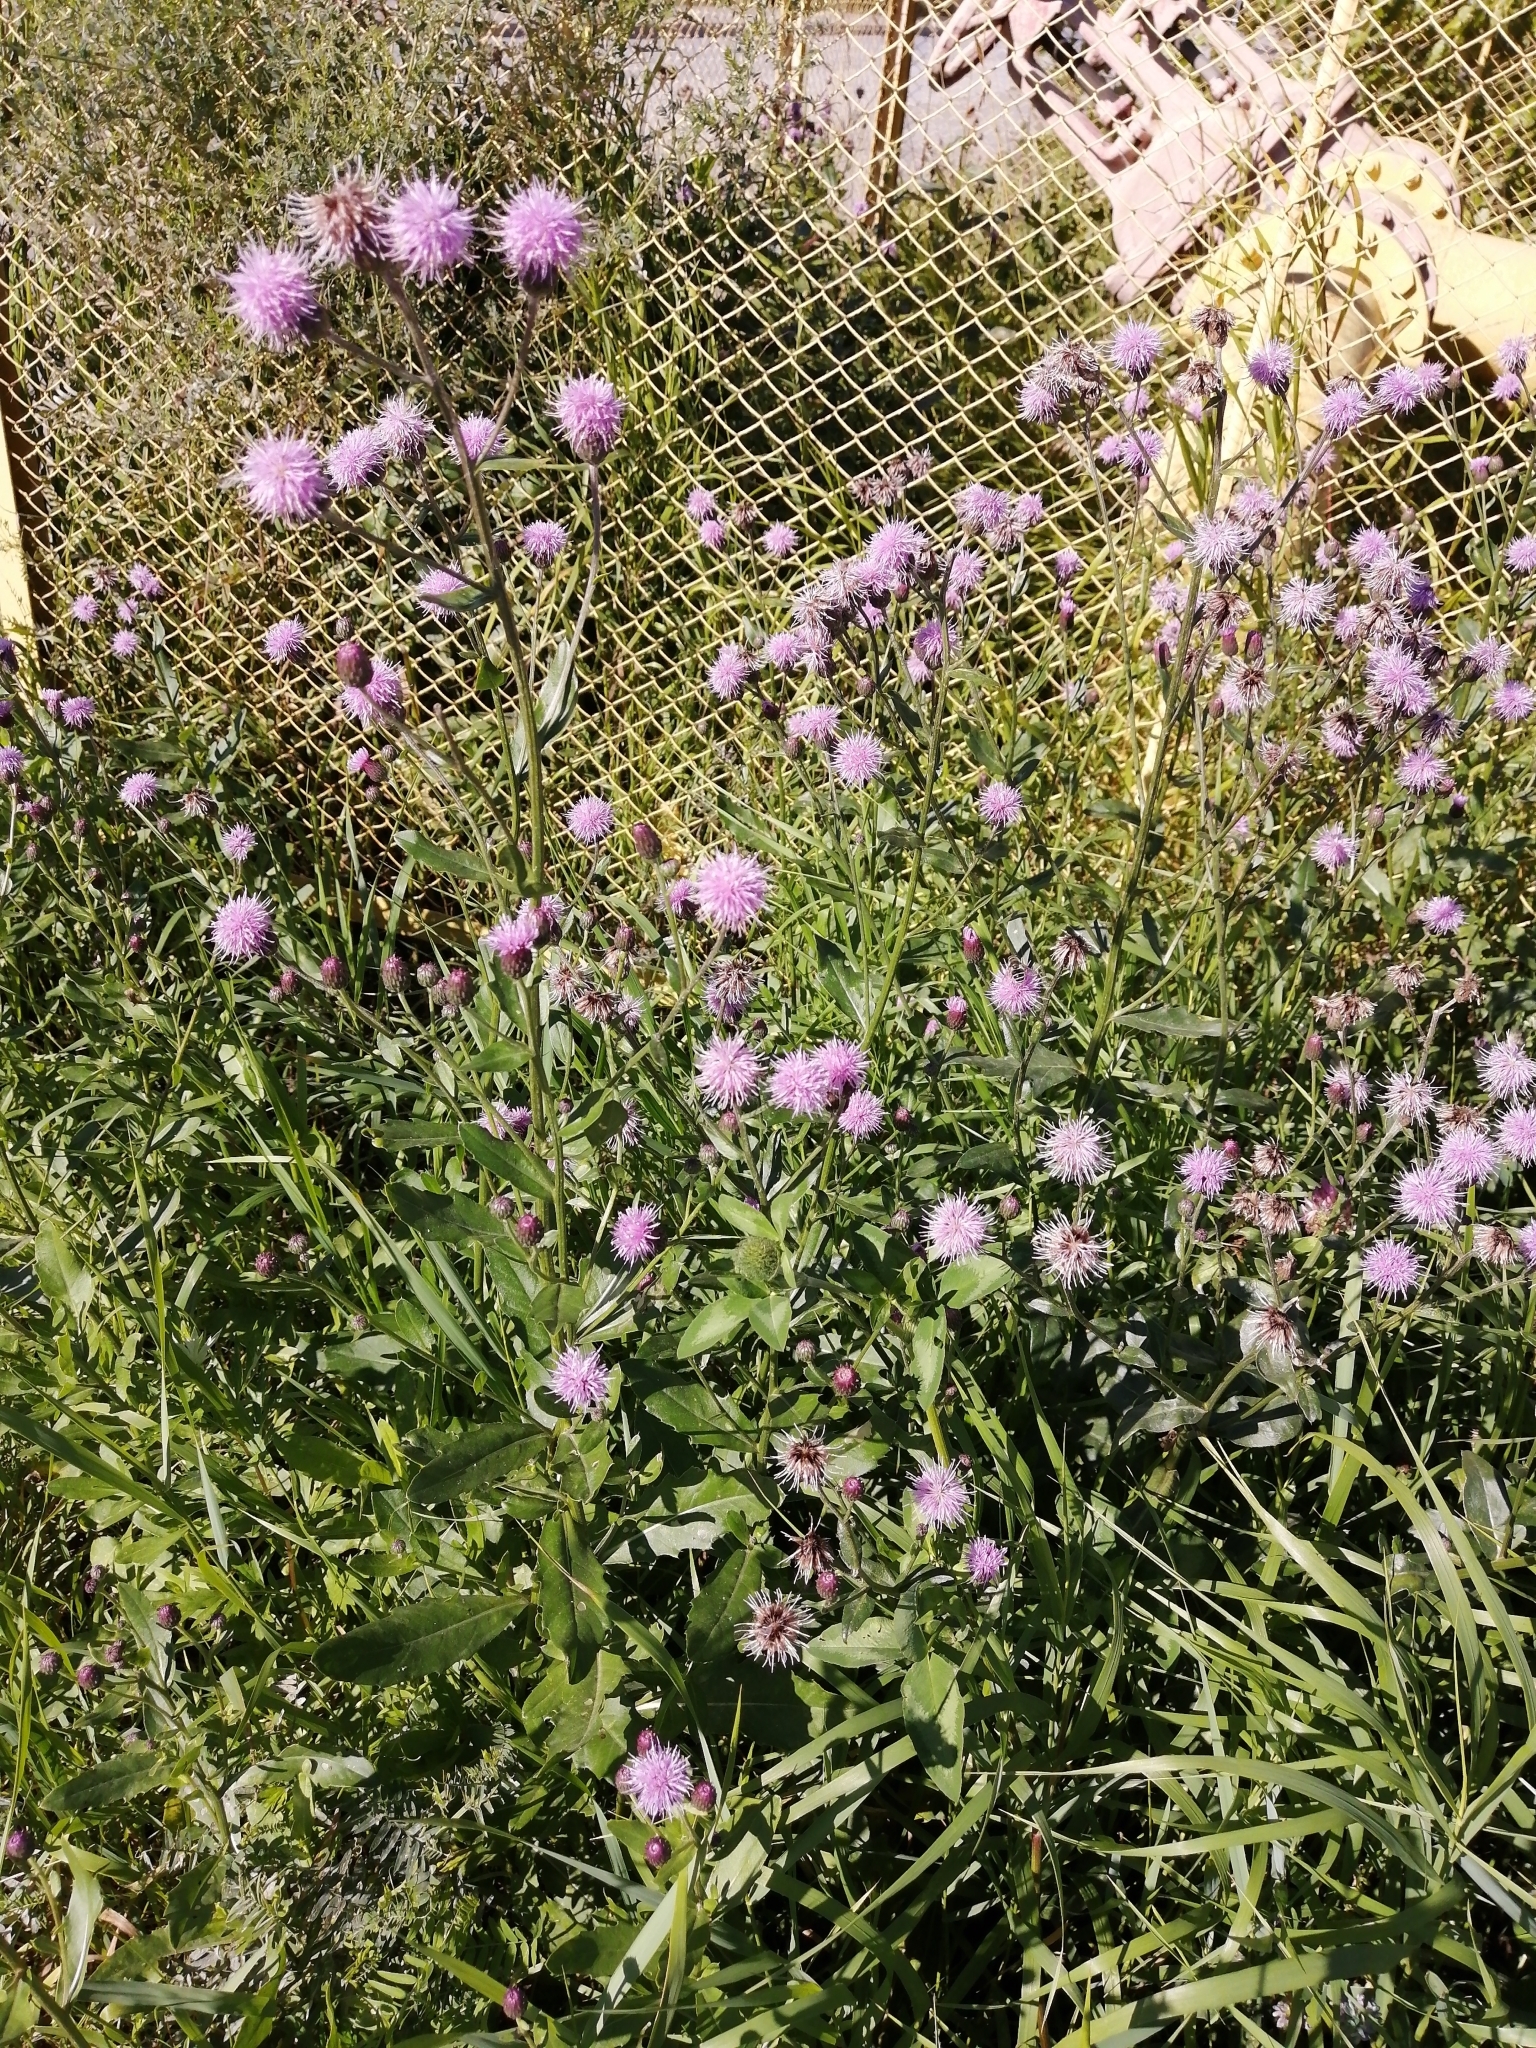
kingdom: Plantae
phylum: Tracheophyta
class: Magnoliopsida
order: Asterales
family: Asteraceae
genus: Cirsium
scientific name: Cirsium arvense
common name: Creeping thistle
